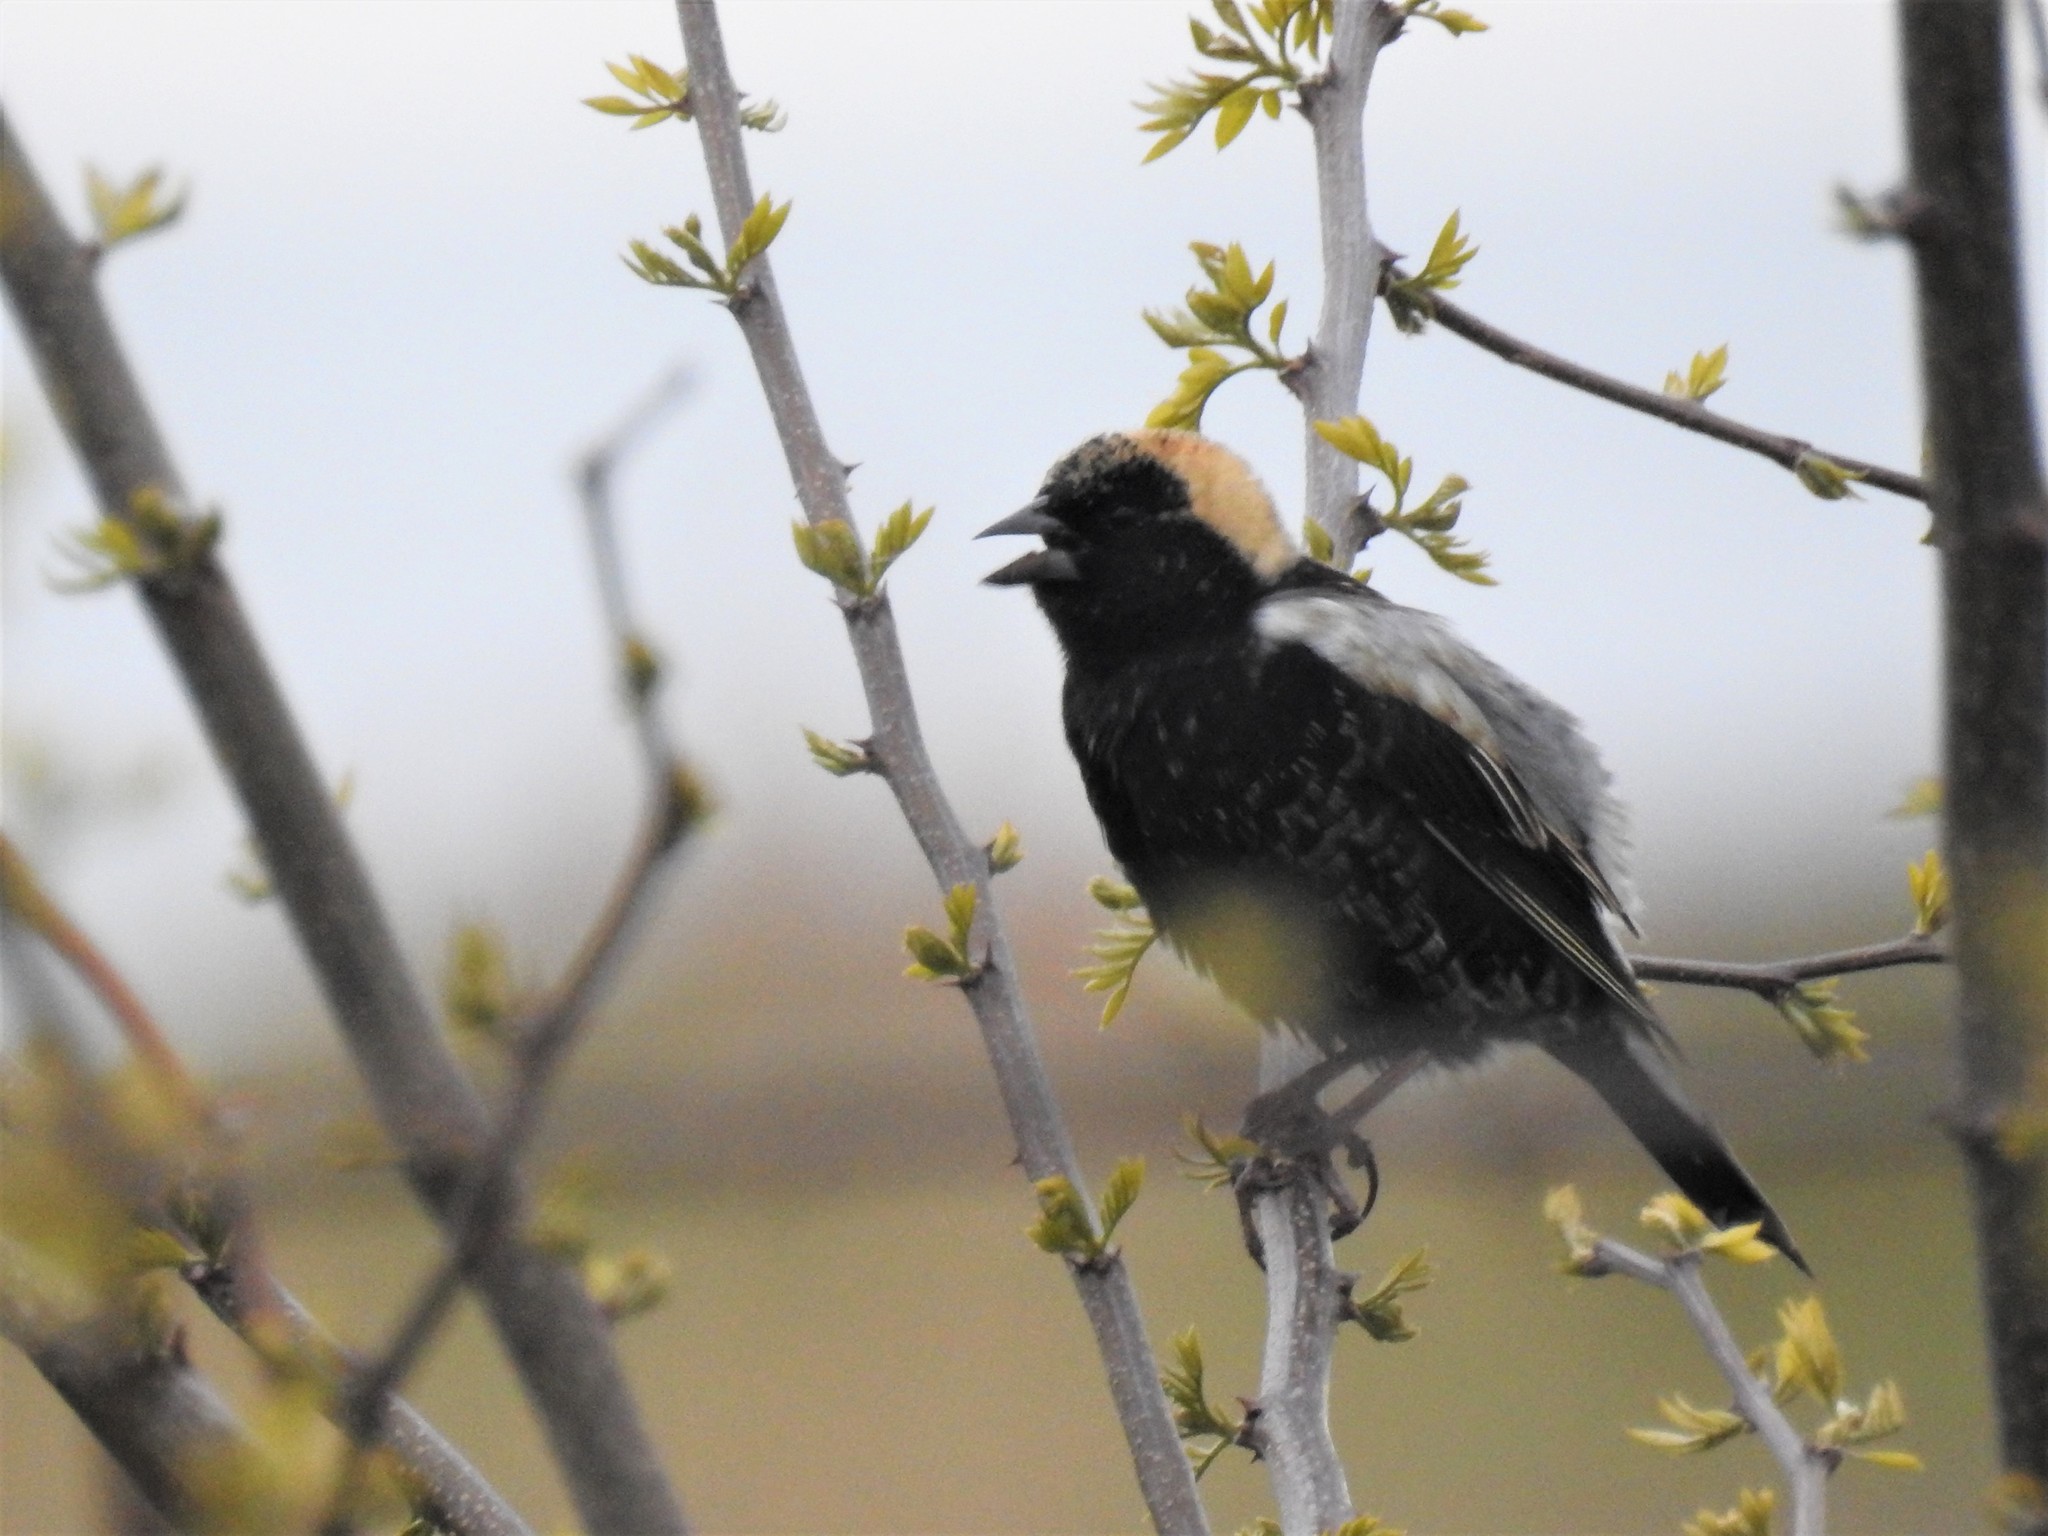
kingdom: Animalia
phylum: Chordata
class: Aves
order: Passeriformes
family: Icteridae
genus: Dolichonyx
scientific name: Dolichonyx oryzivorus
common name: Bobolink
